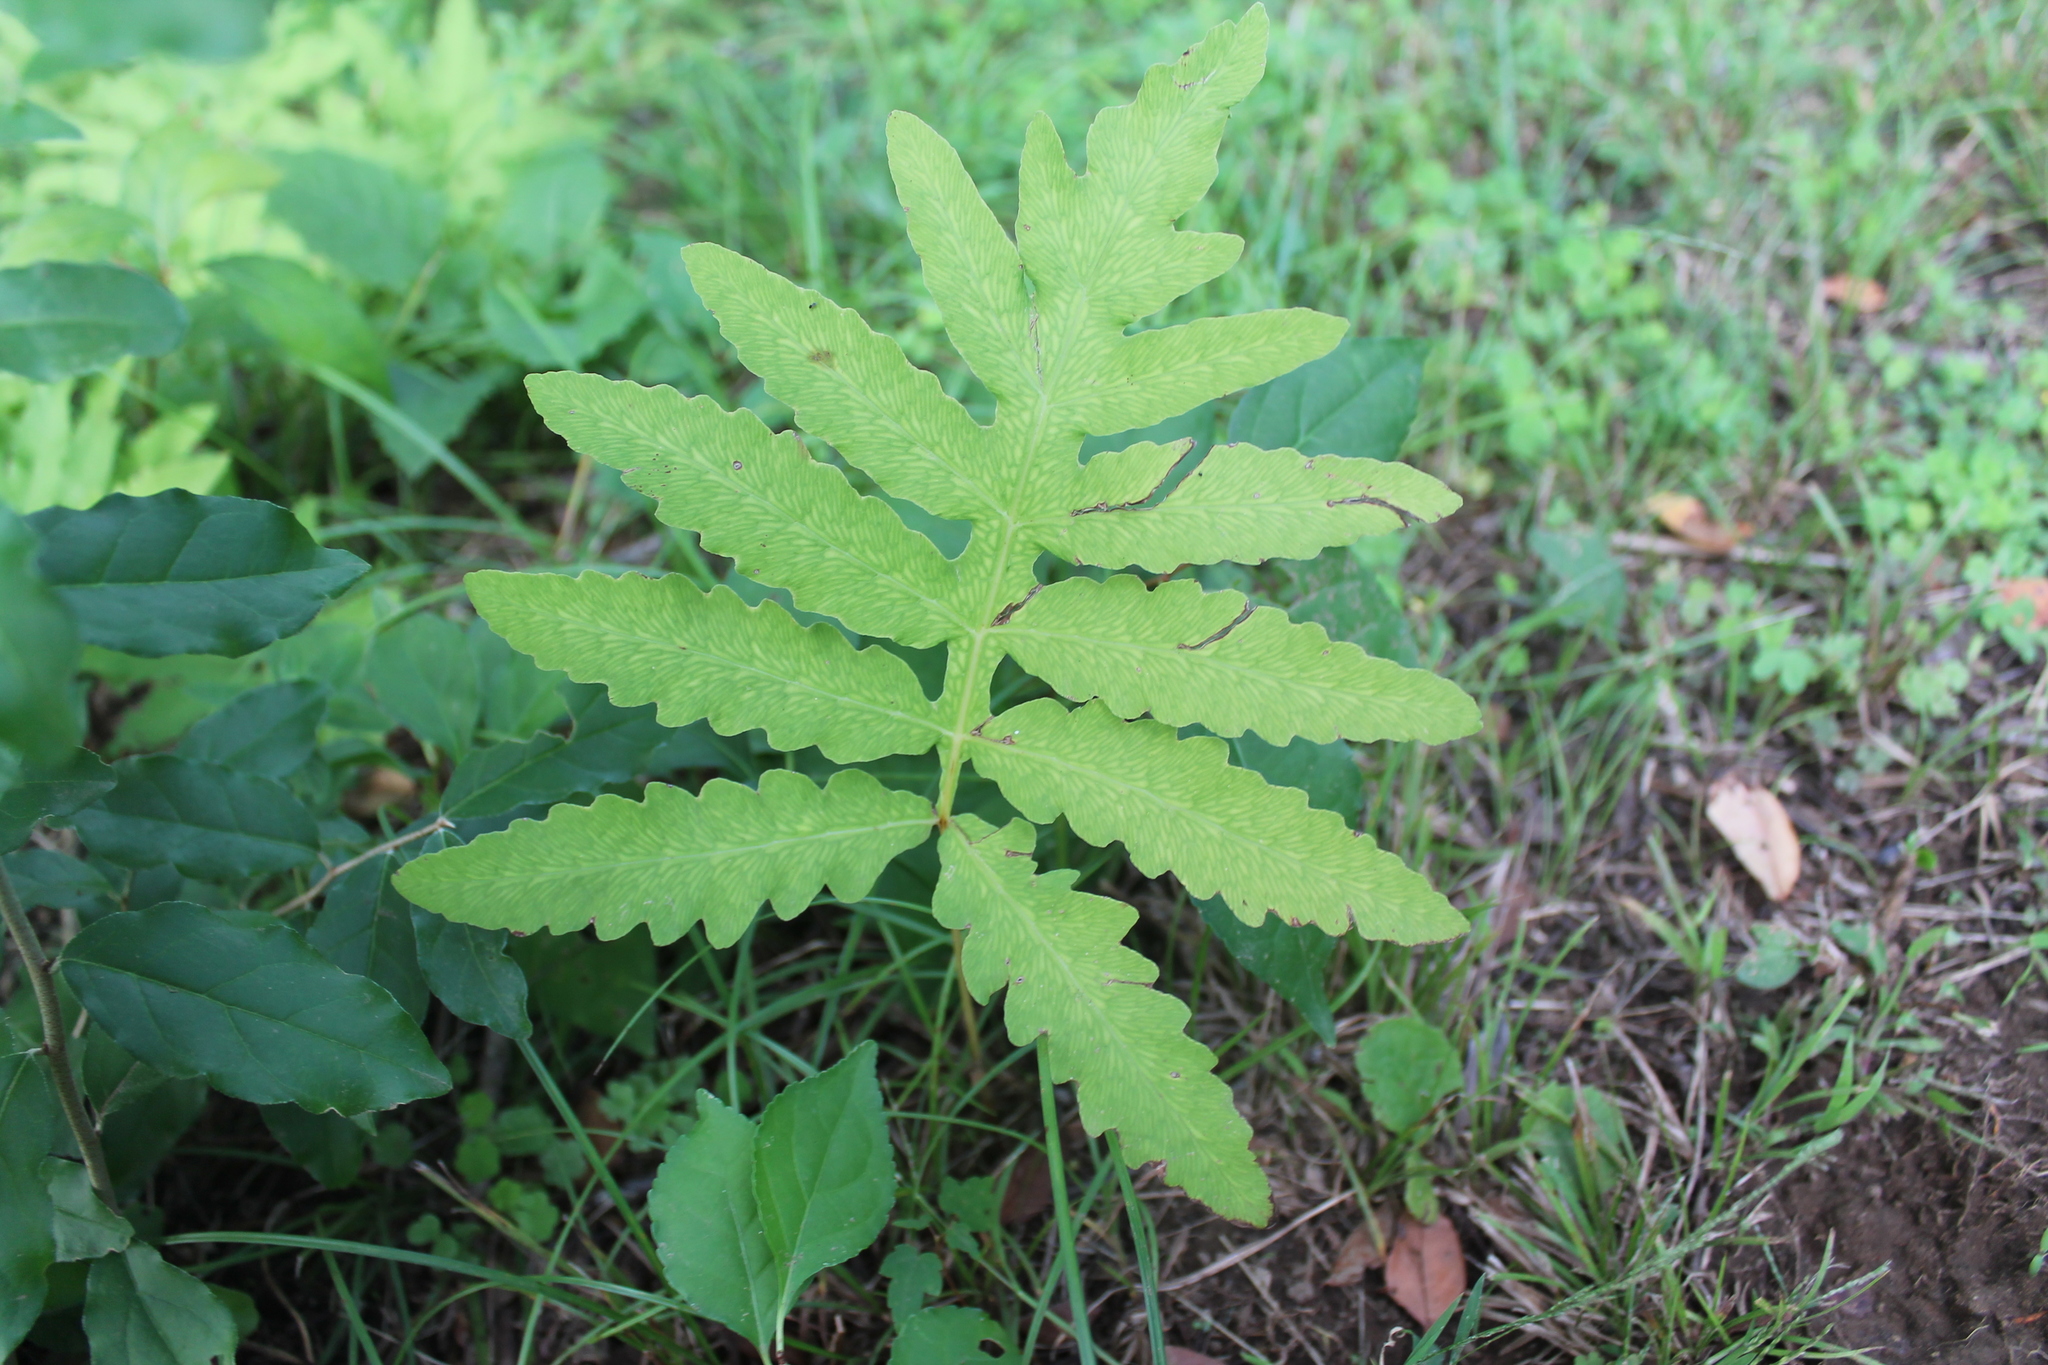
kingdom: Plantae
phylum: Tracheophyta
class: Polypodiopsida
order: Polypodiales
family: Onocleaceae
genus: Onoclea
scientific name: Onoclea sensibilis
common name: Sensitive fern
